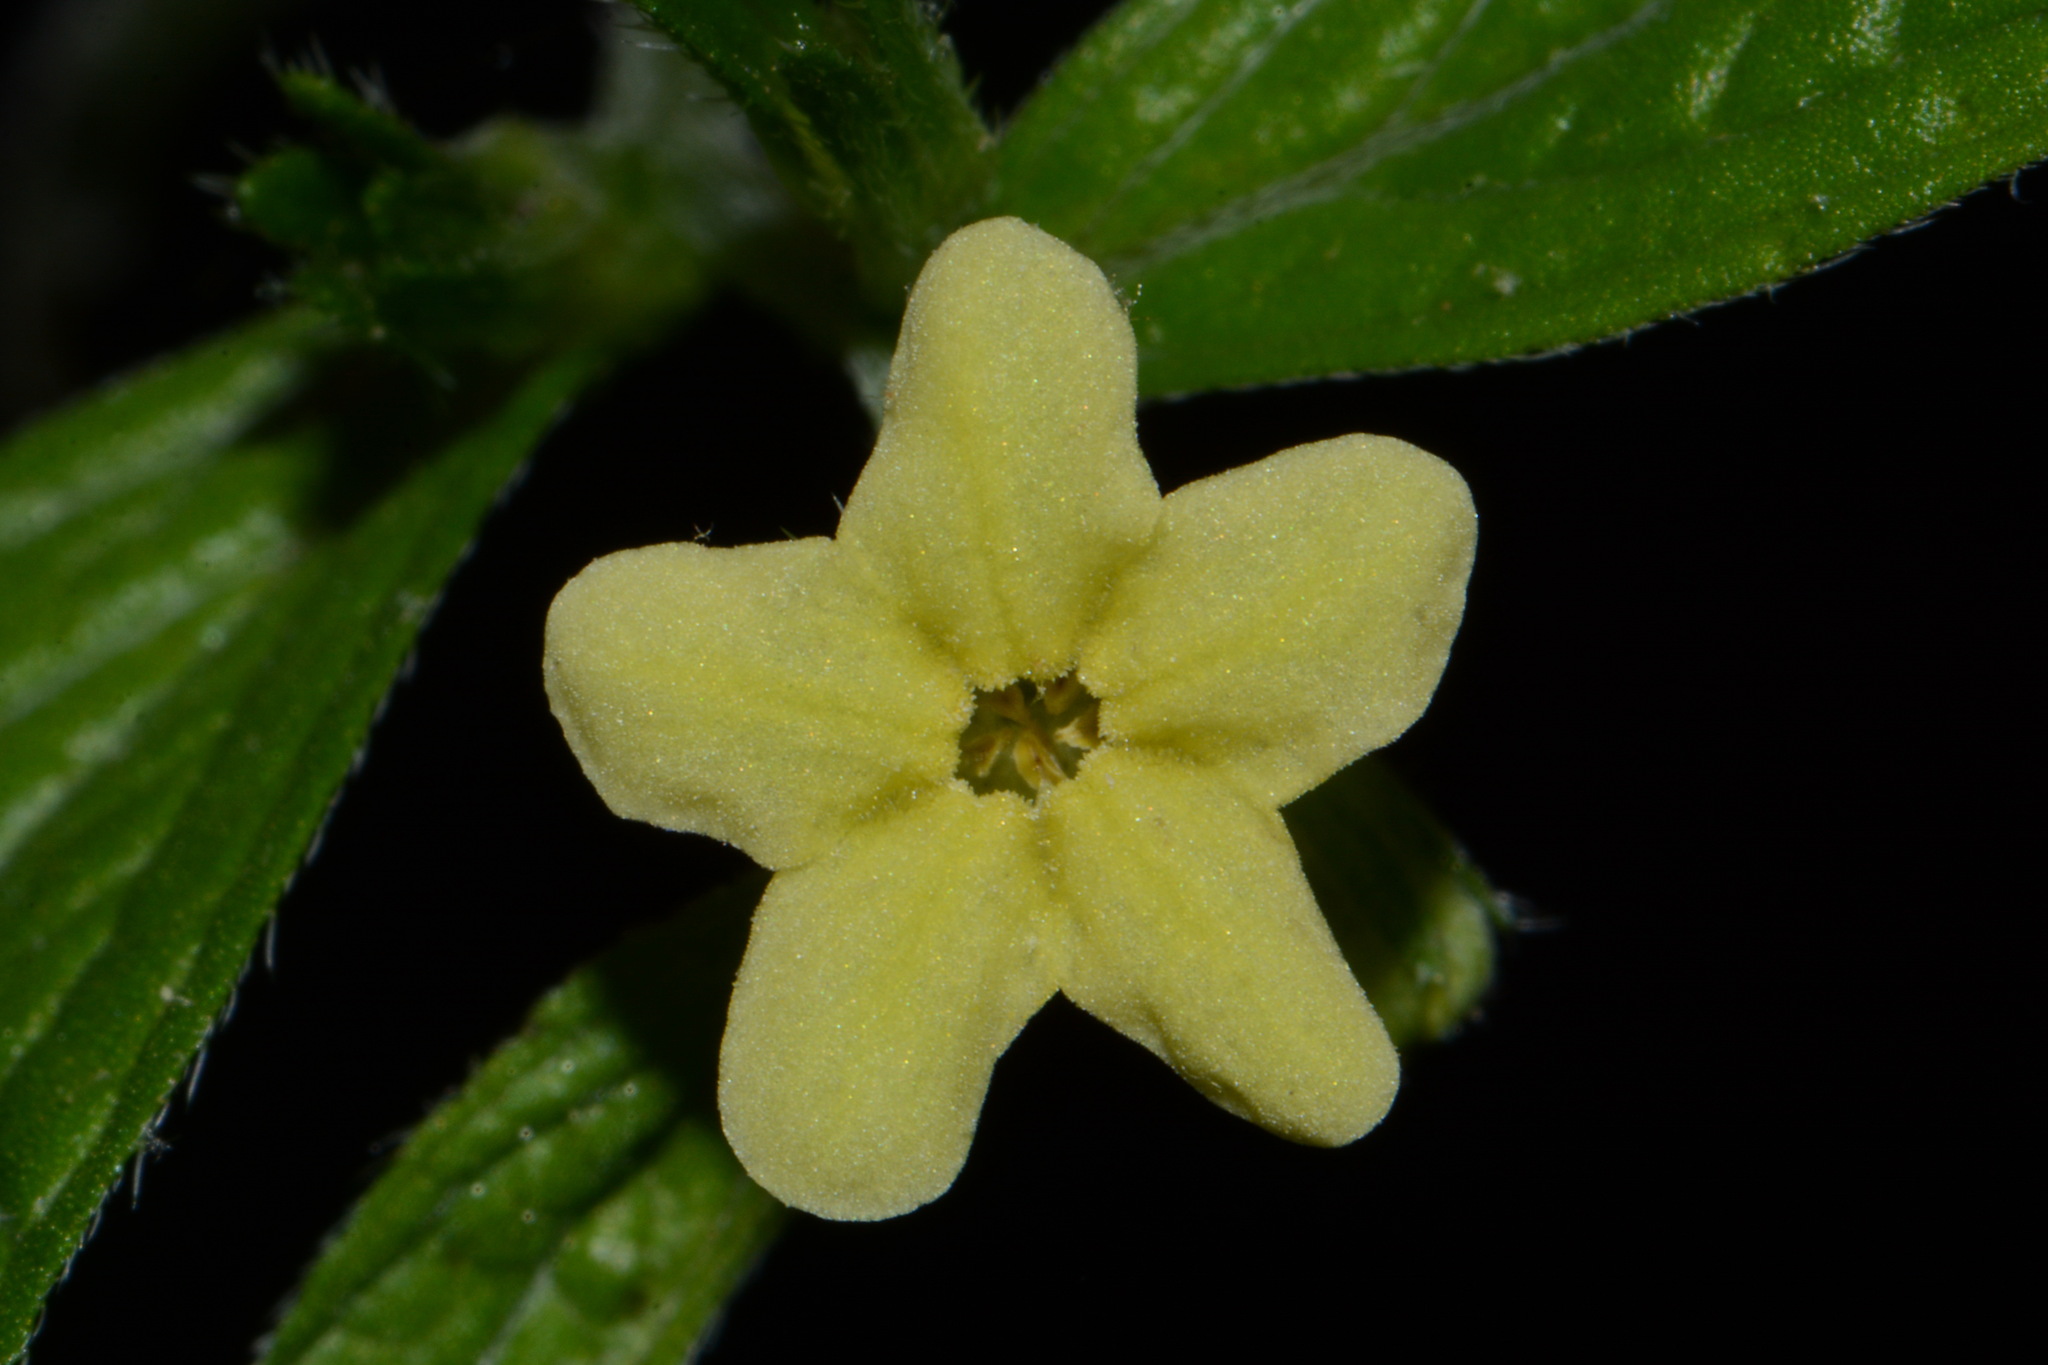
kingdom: Plantae
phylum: Tracheophyta
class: Magnoliopsida
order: Boraginales
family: Boraginaceae
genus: Lithospermum
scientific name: Lithospermum latifolium
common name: American gromwell
